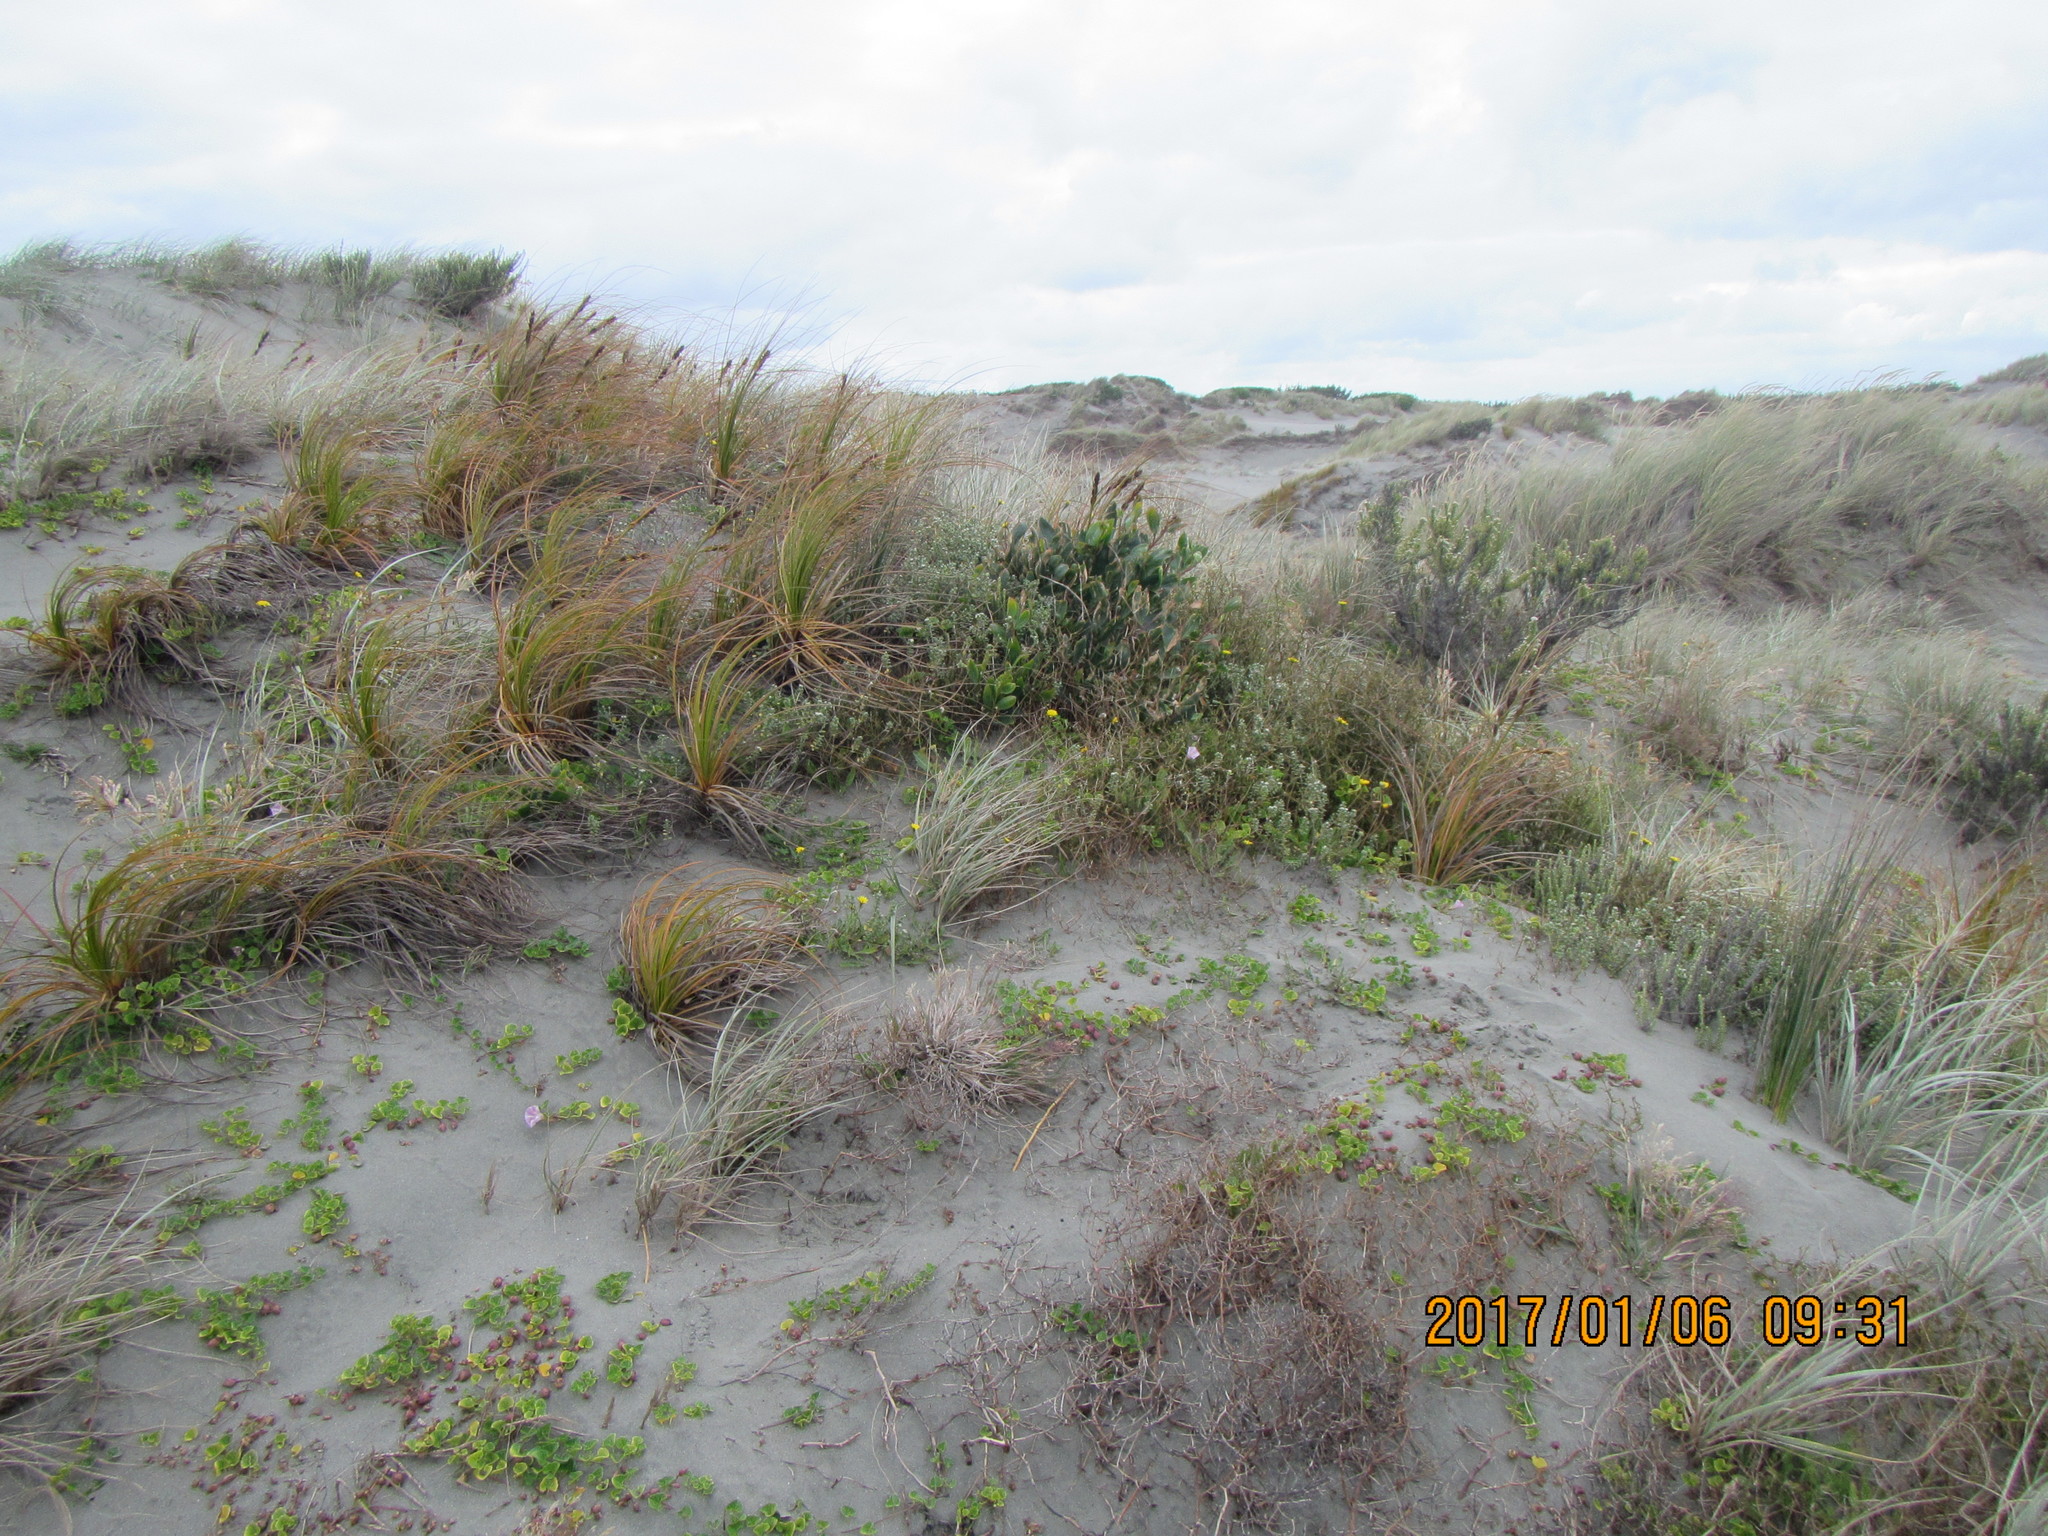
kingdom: Plantae
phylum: Tracheophyta
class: Magnoliopsida
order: Malvales
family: Thymelaeaceae
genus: Pimelea
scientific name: Pimelea villosa
